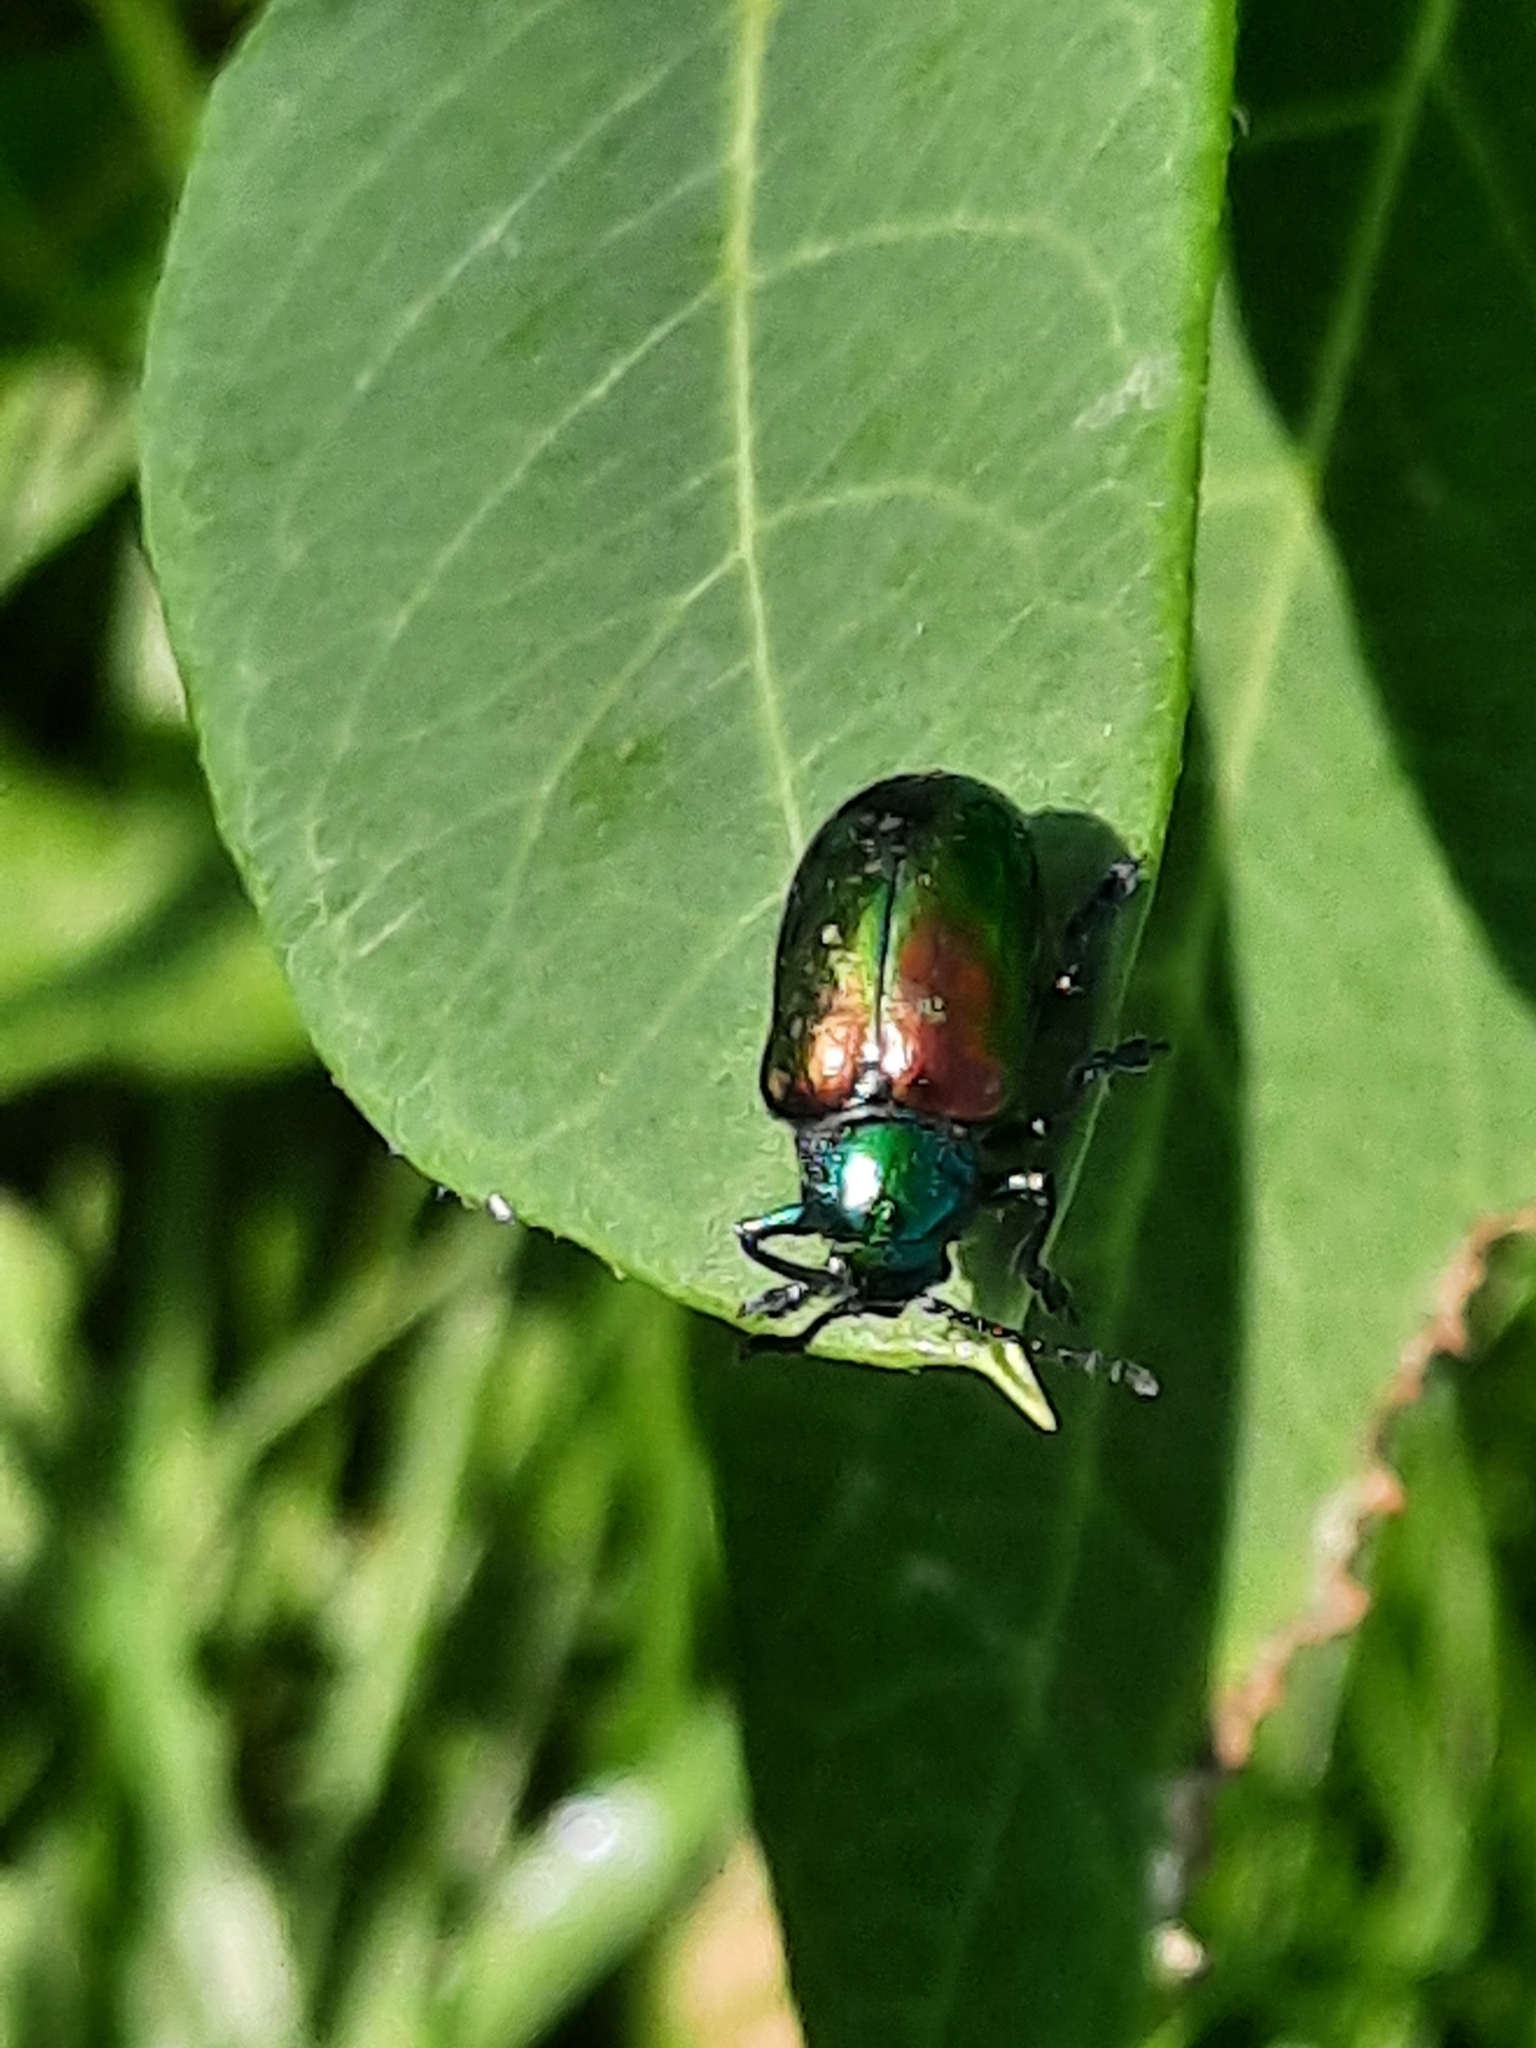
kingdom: Animalia
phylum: Arthropoda
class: Insecta
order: Coleoptera
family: Chrysomelidae
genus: Chrysochus
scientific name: Chrysochus auratus
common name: Dogbane leaf beetle
